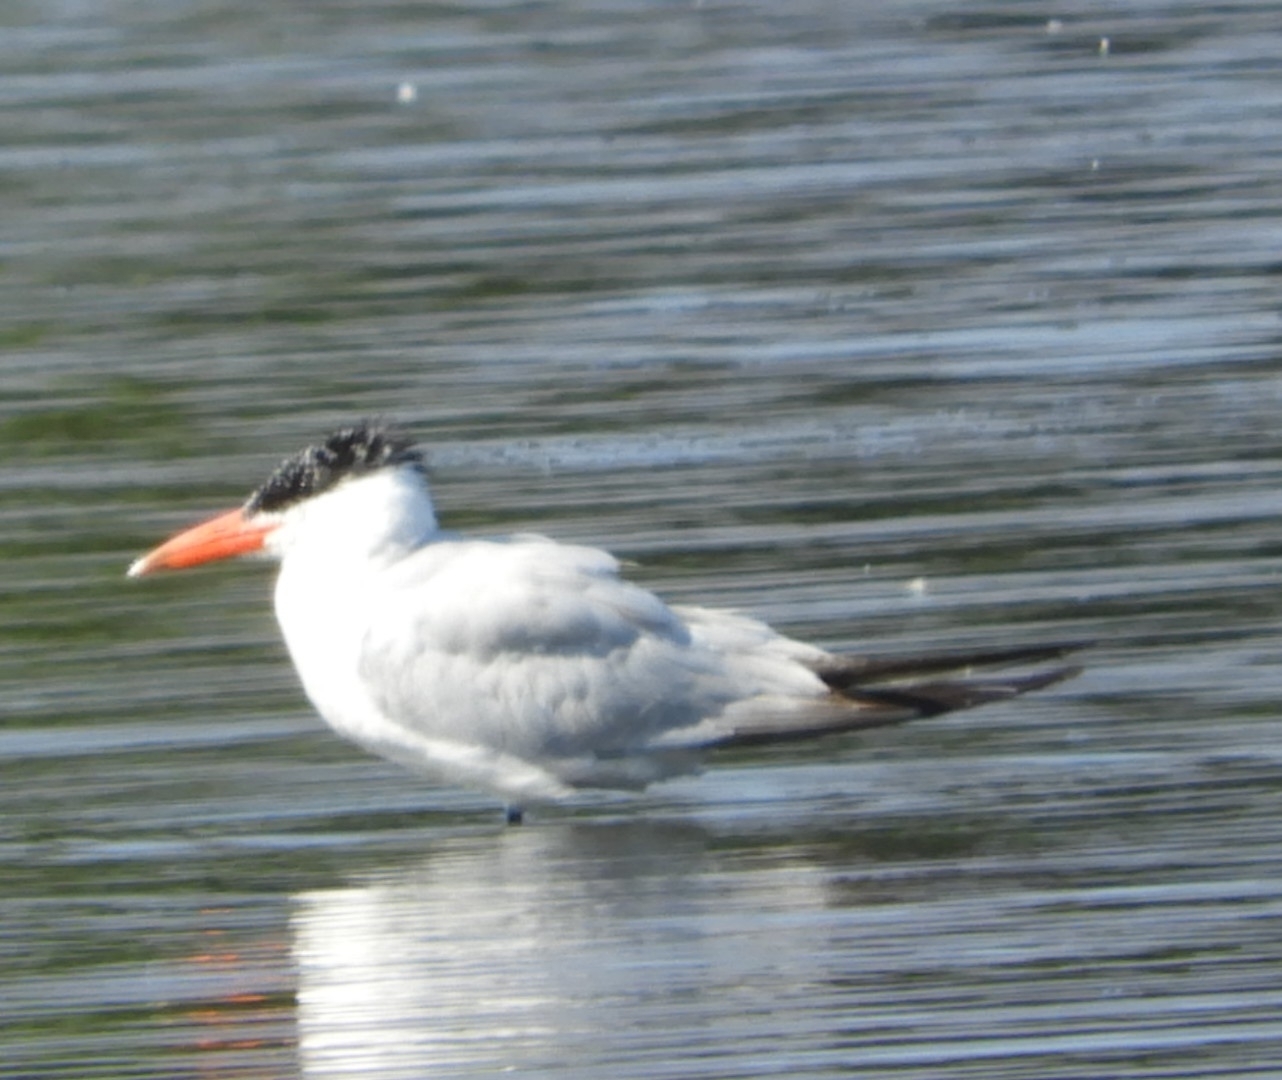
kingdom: Animalia
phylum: Chordata
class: Aves
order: Charadriiformes
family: Laridae
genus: Hydroprogne
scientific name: Hydroprogne caspia
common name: Caspian tern
